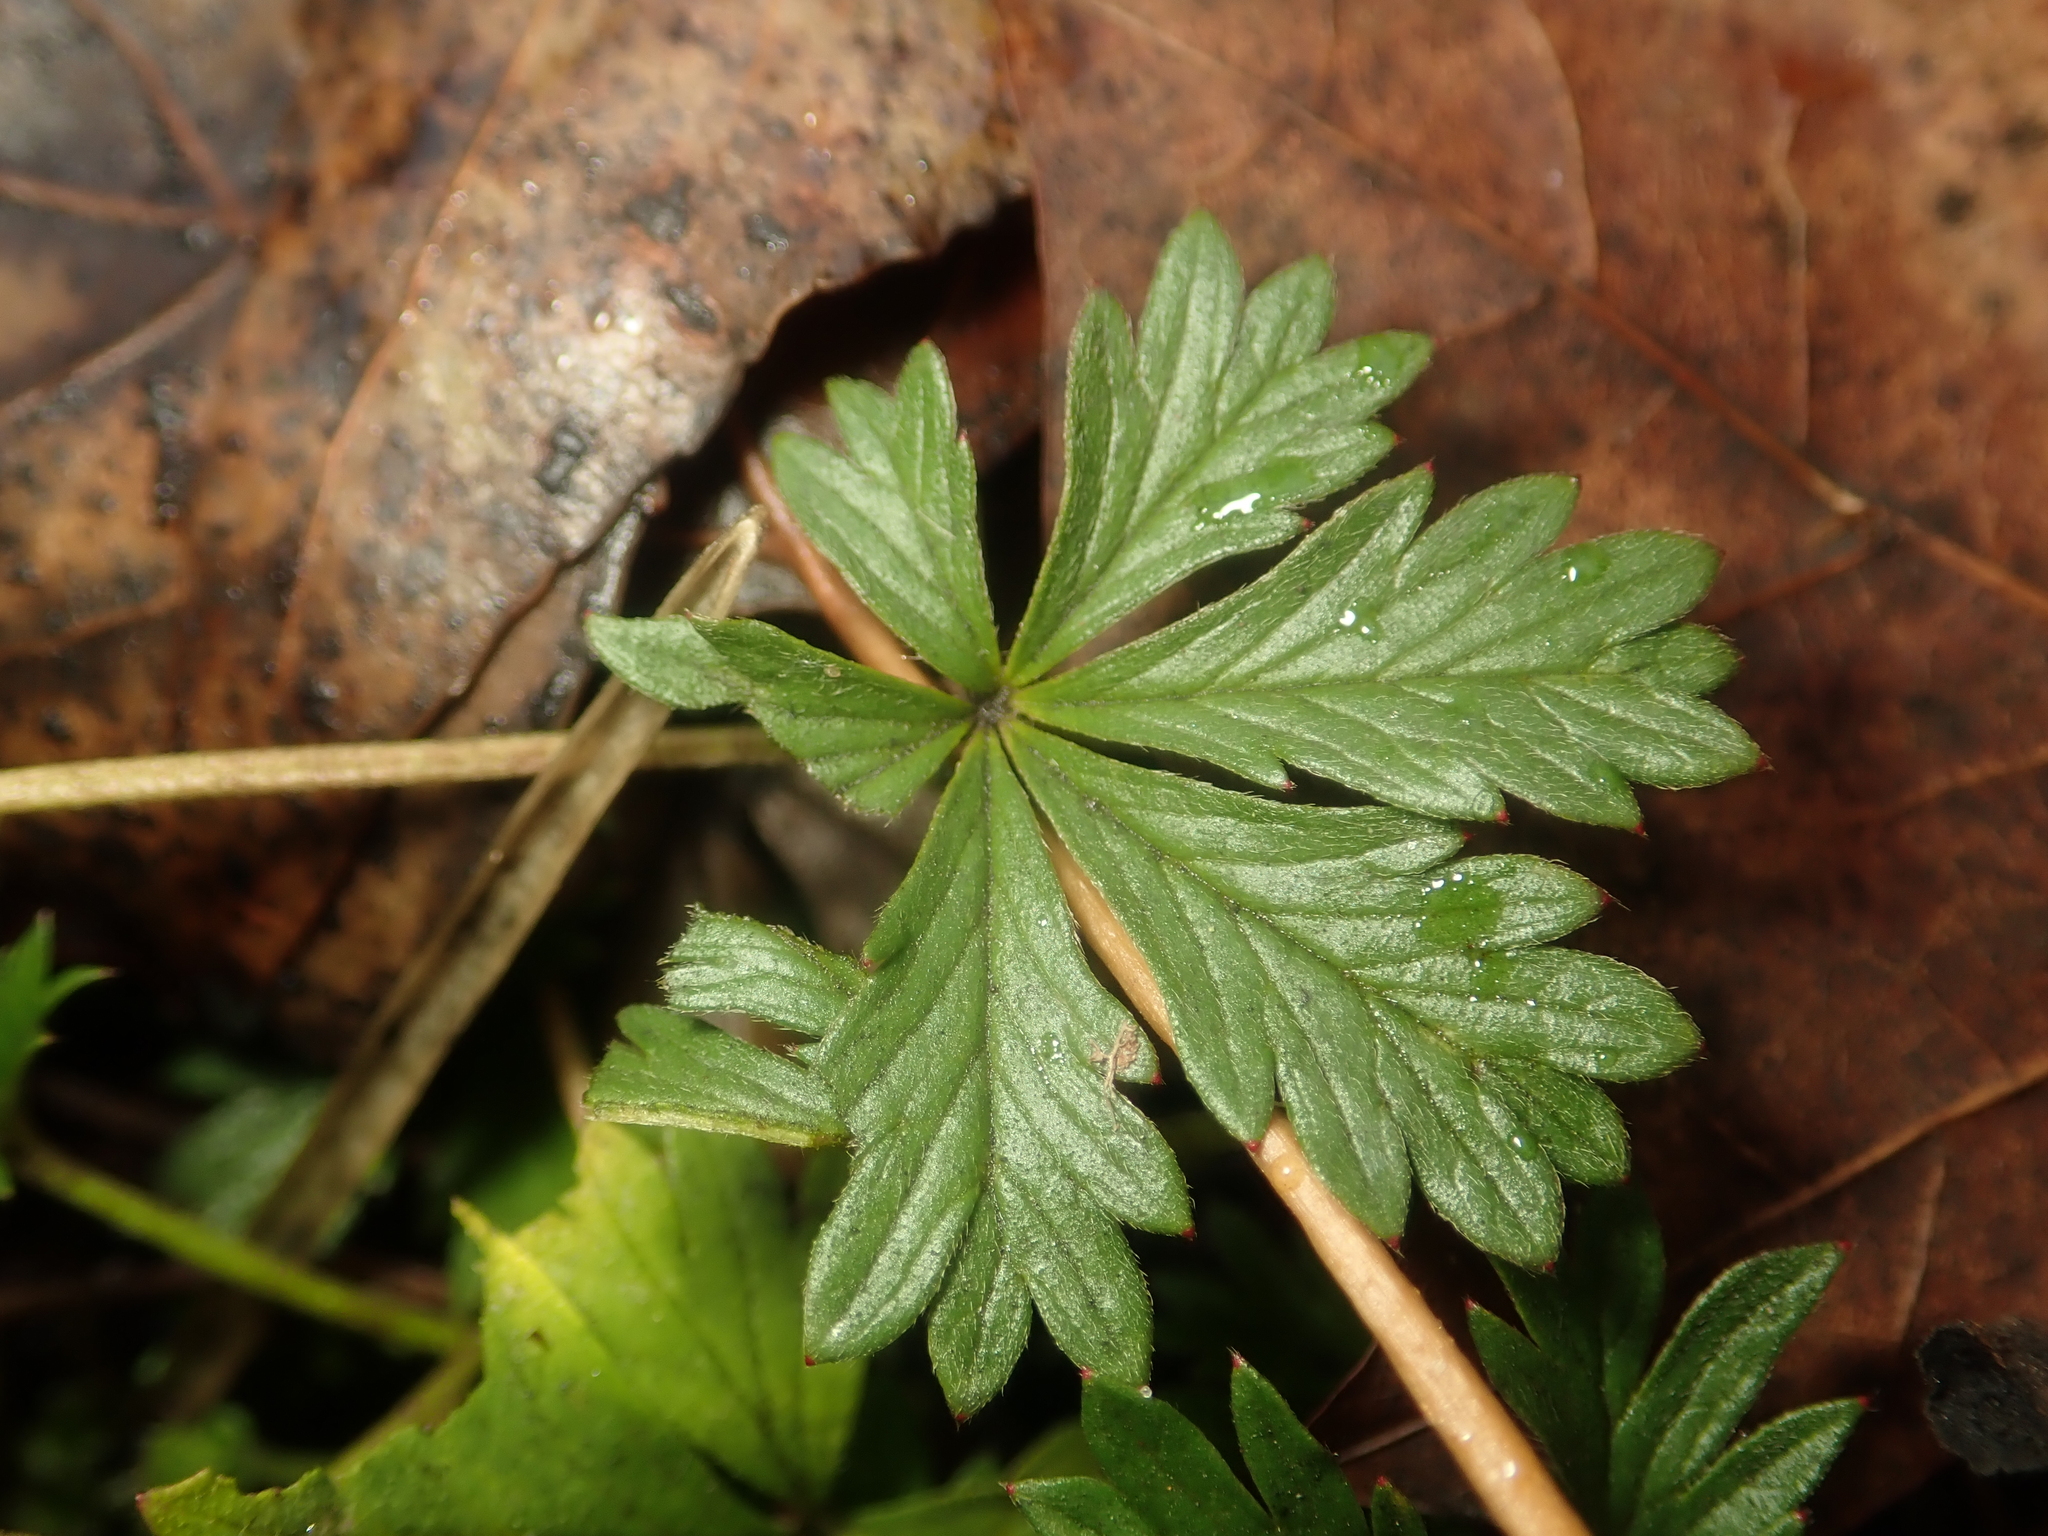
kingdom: Plantae
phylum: Tracheophyta
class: Magnoliopsida
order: Rosales
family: Rosaceae
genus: Potentilla
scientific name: Potentilla argentea
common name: Hoary cinquefoil
